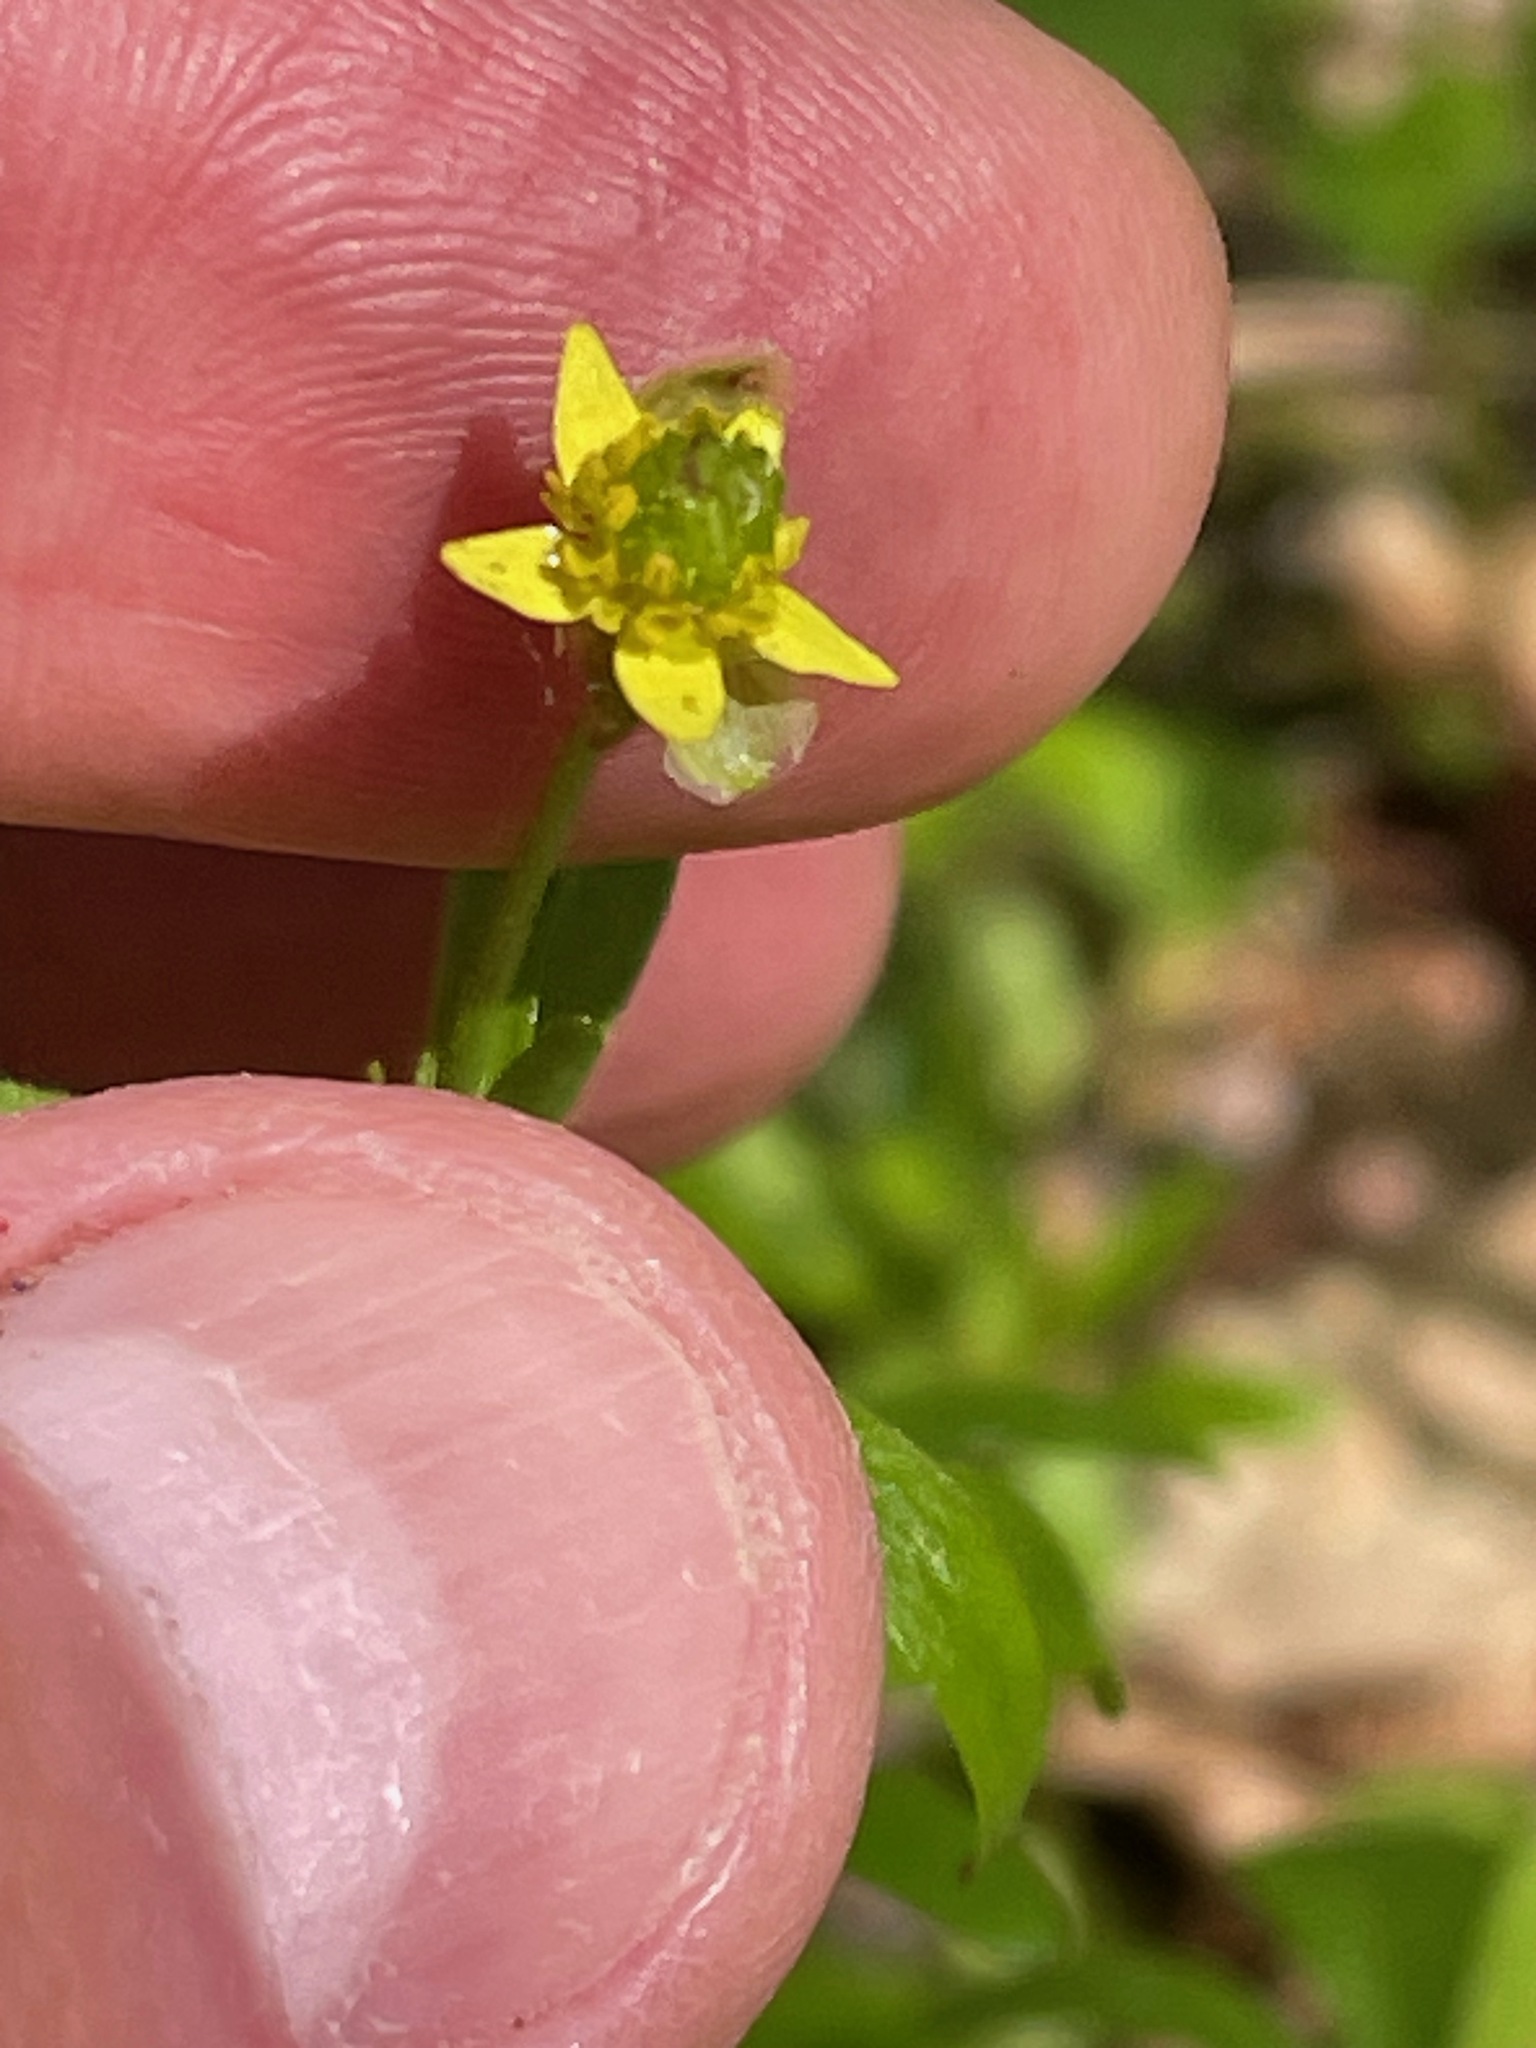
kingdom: Plantae
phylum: Tracheophyta
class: Magnoliopsida
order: Ranunculales
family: Ranunculaceae
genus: Ranunculus
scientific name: Ranunculus abortivus
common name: Early wood buttercup
